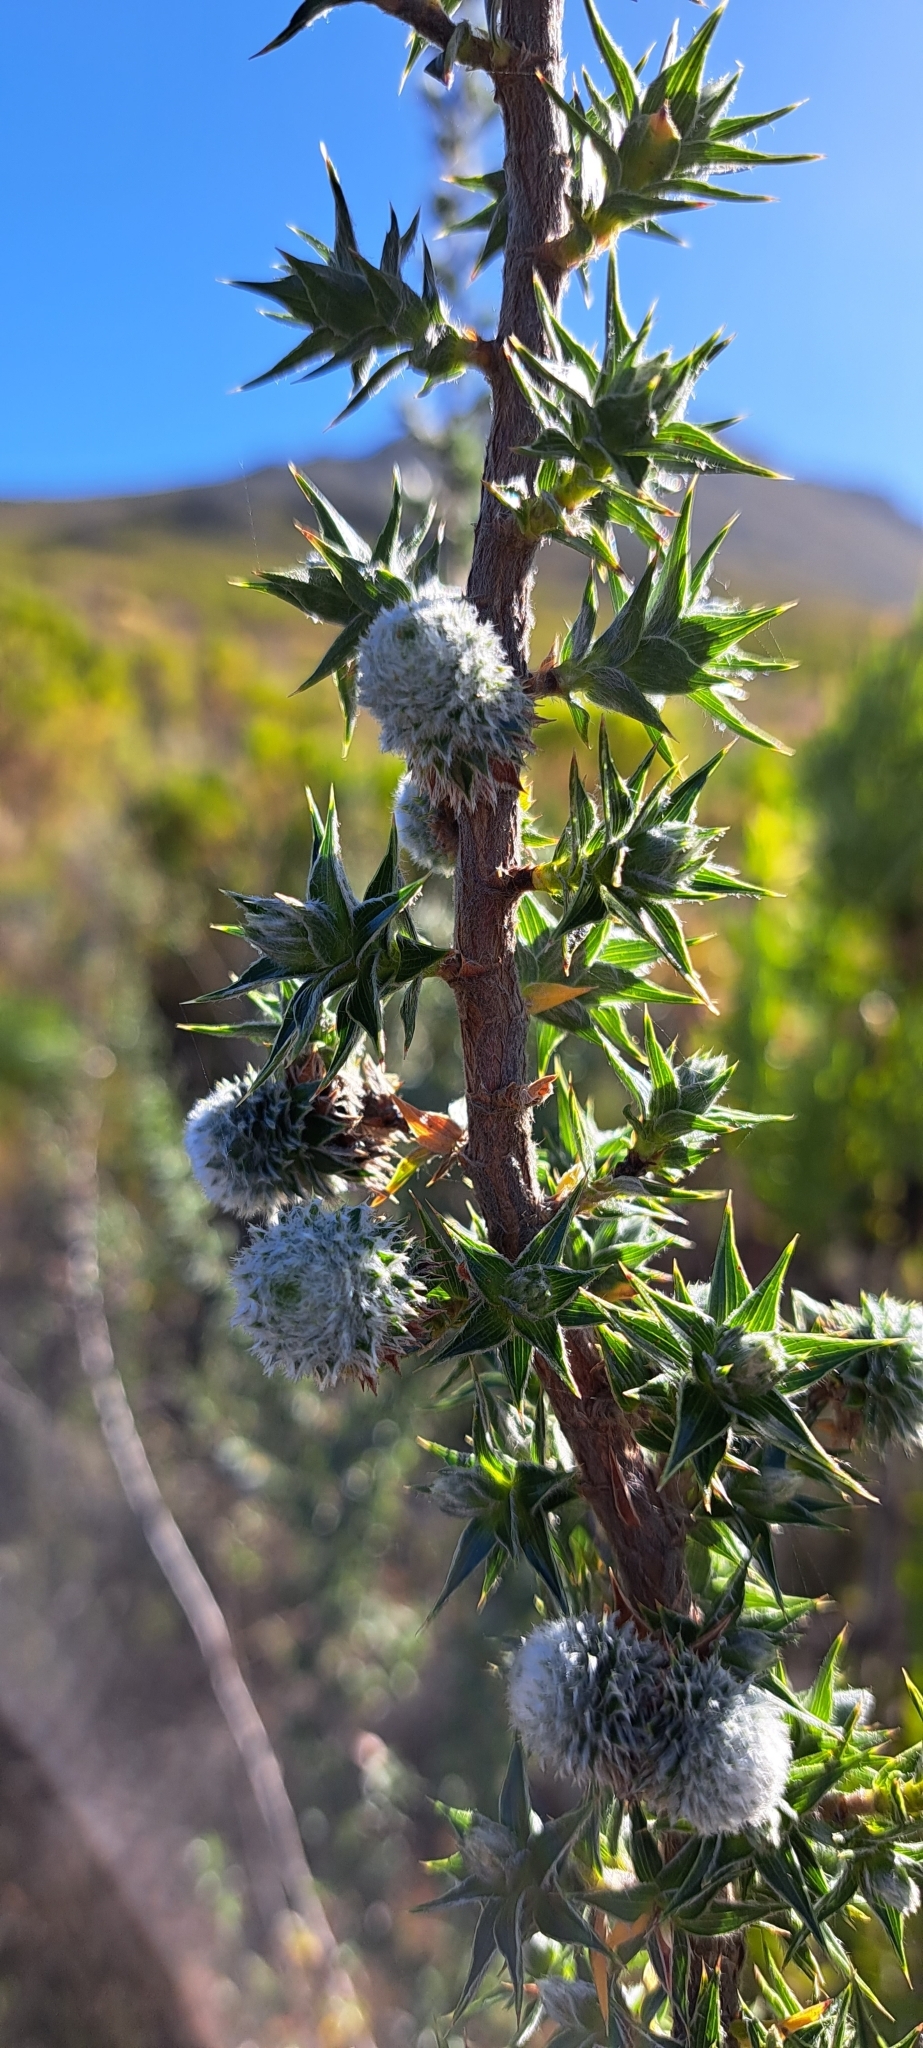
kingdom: Plantae
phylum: Tracheophyta
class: Magnoliopsida
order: Rosales
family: Rosaceae
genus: Cliffortia
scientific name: Cliffortia ruscifolia
